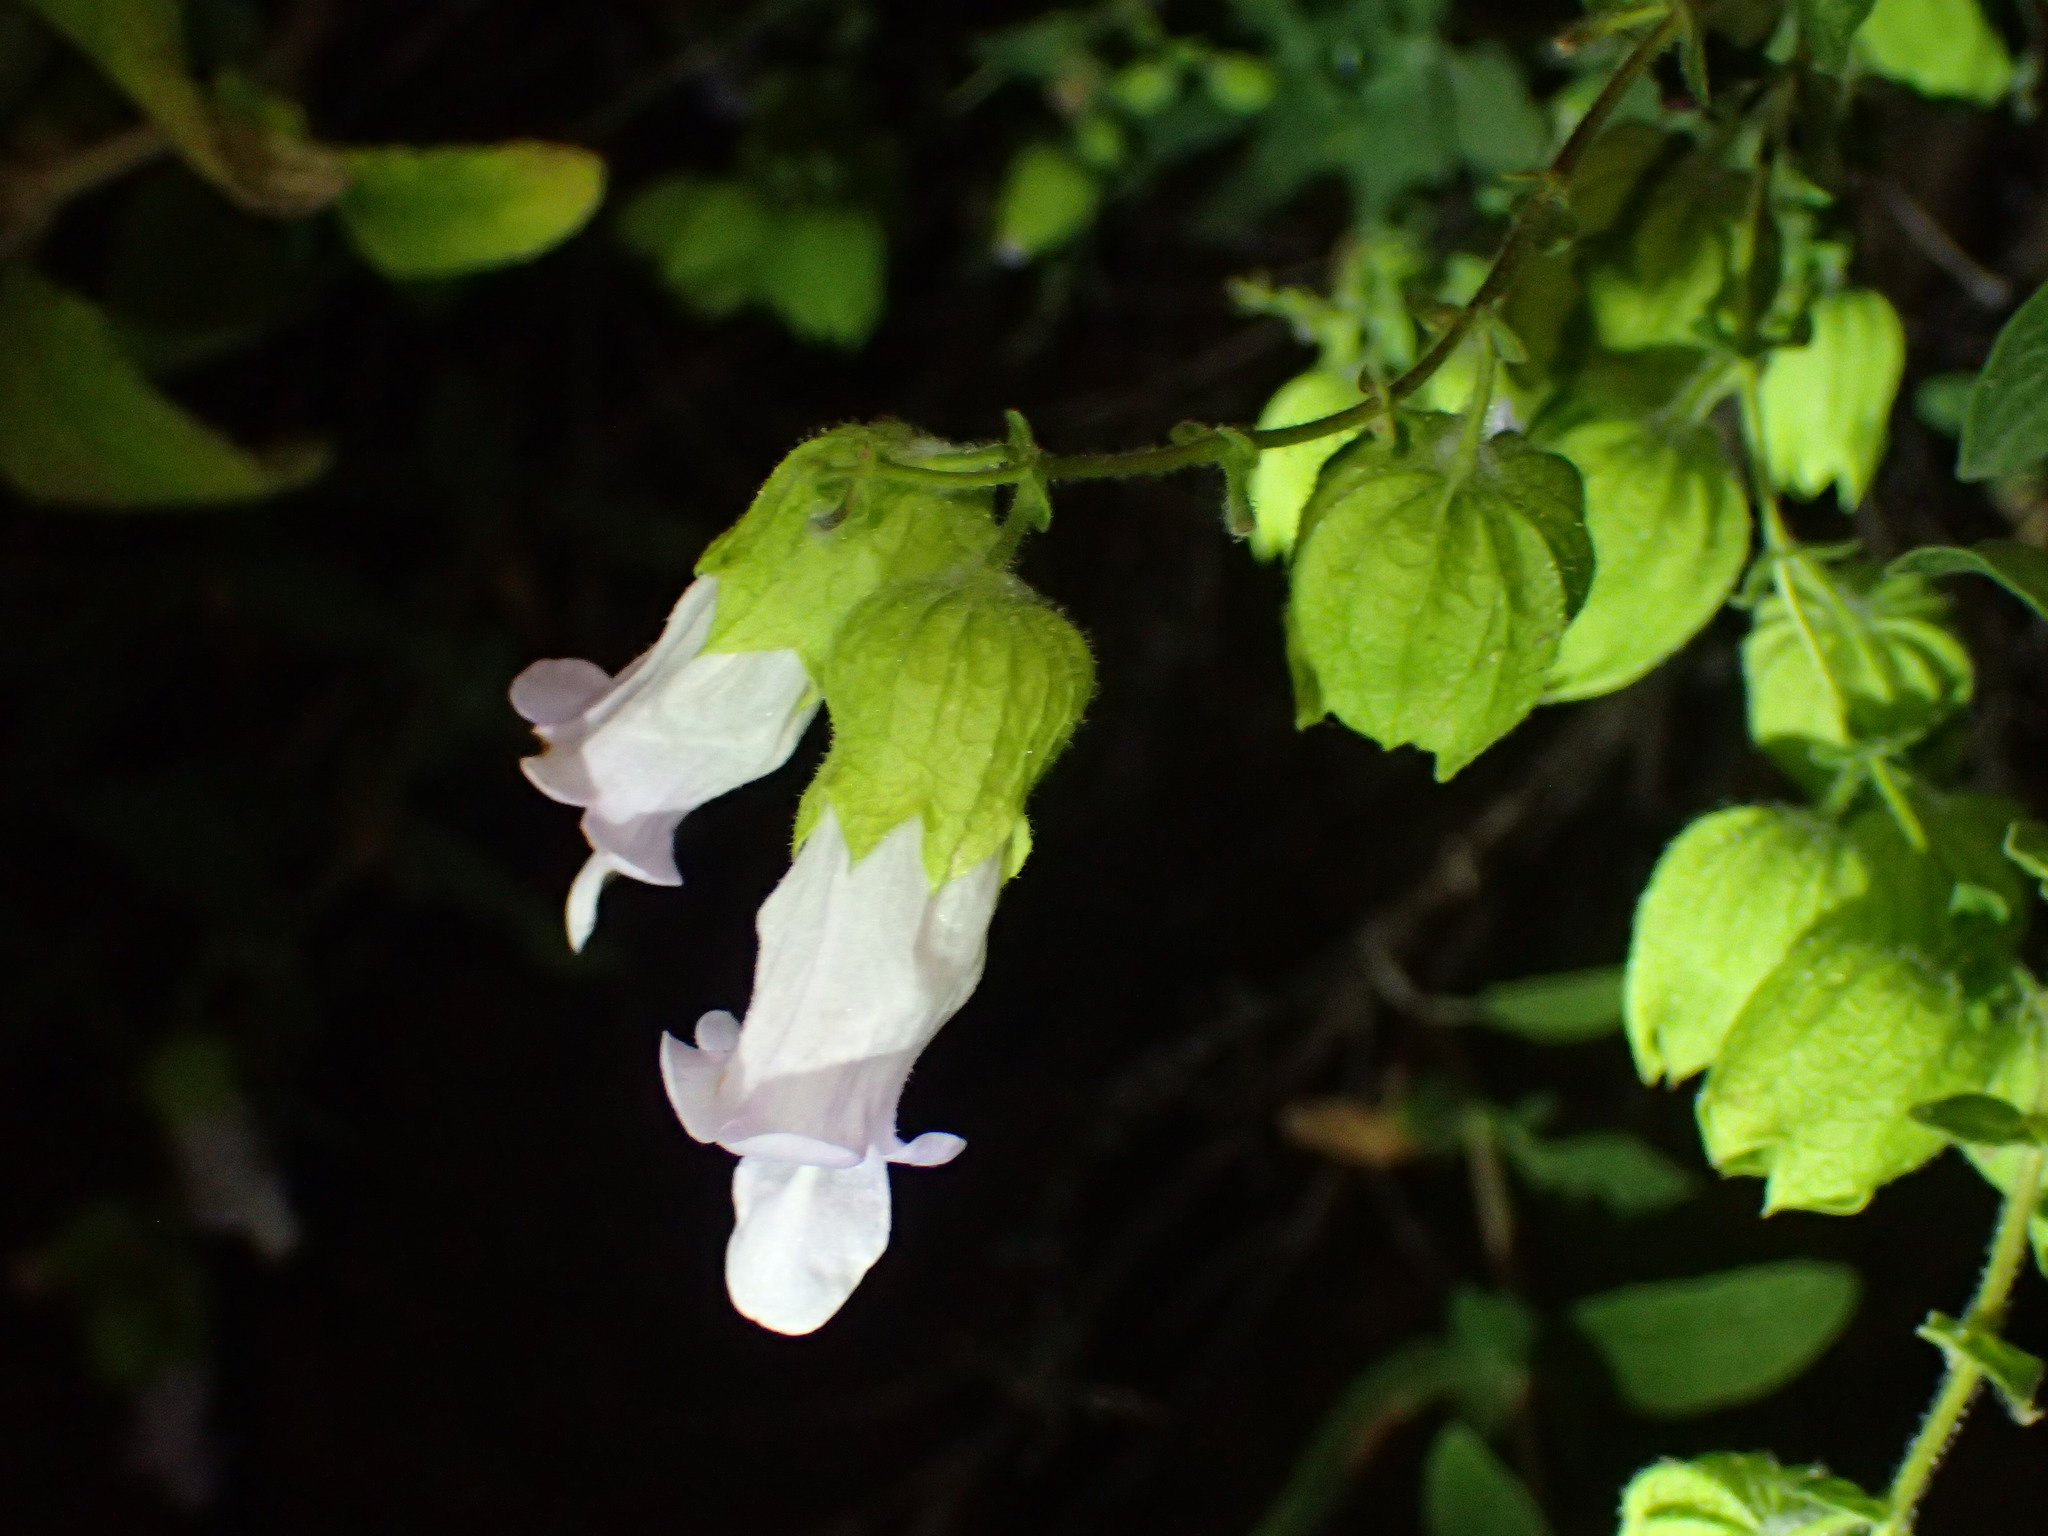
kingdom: Plantae
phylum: Tracheophyta
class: Magnoliopsida
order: Lamiales
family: Lamiaceae
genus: Lepechinia
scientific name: Lepechinia calycina
